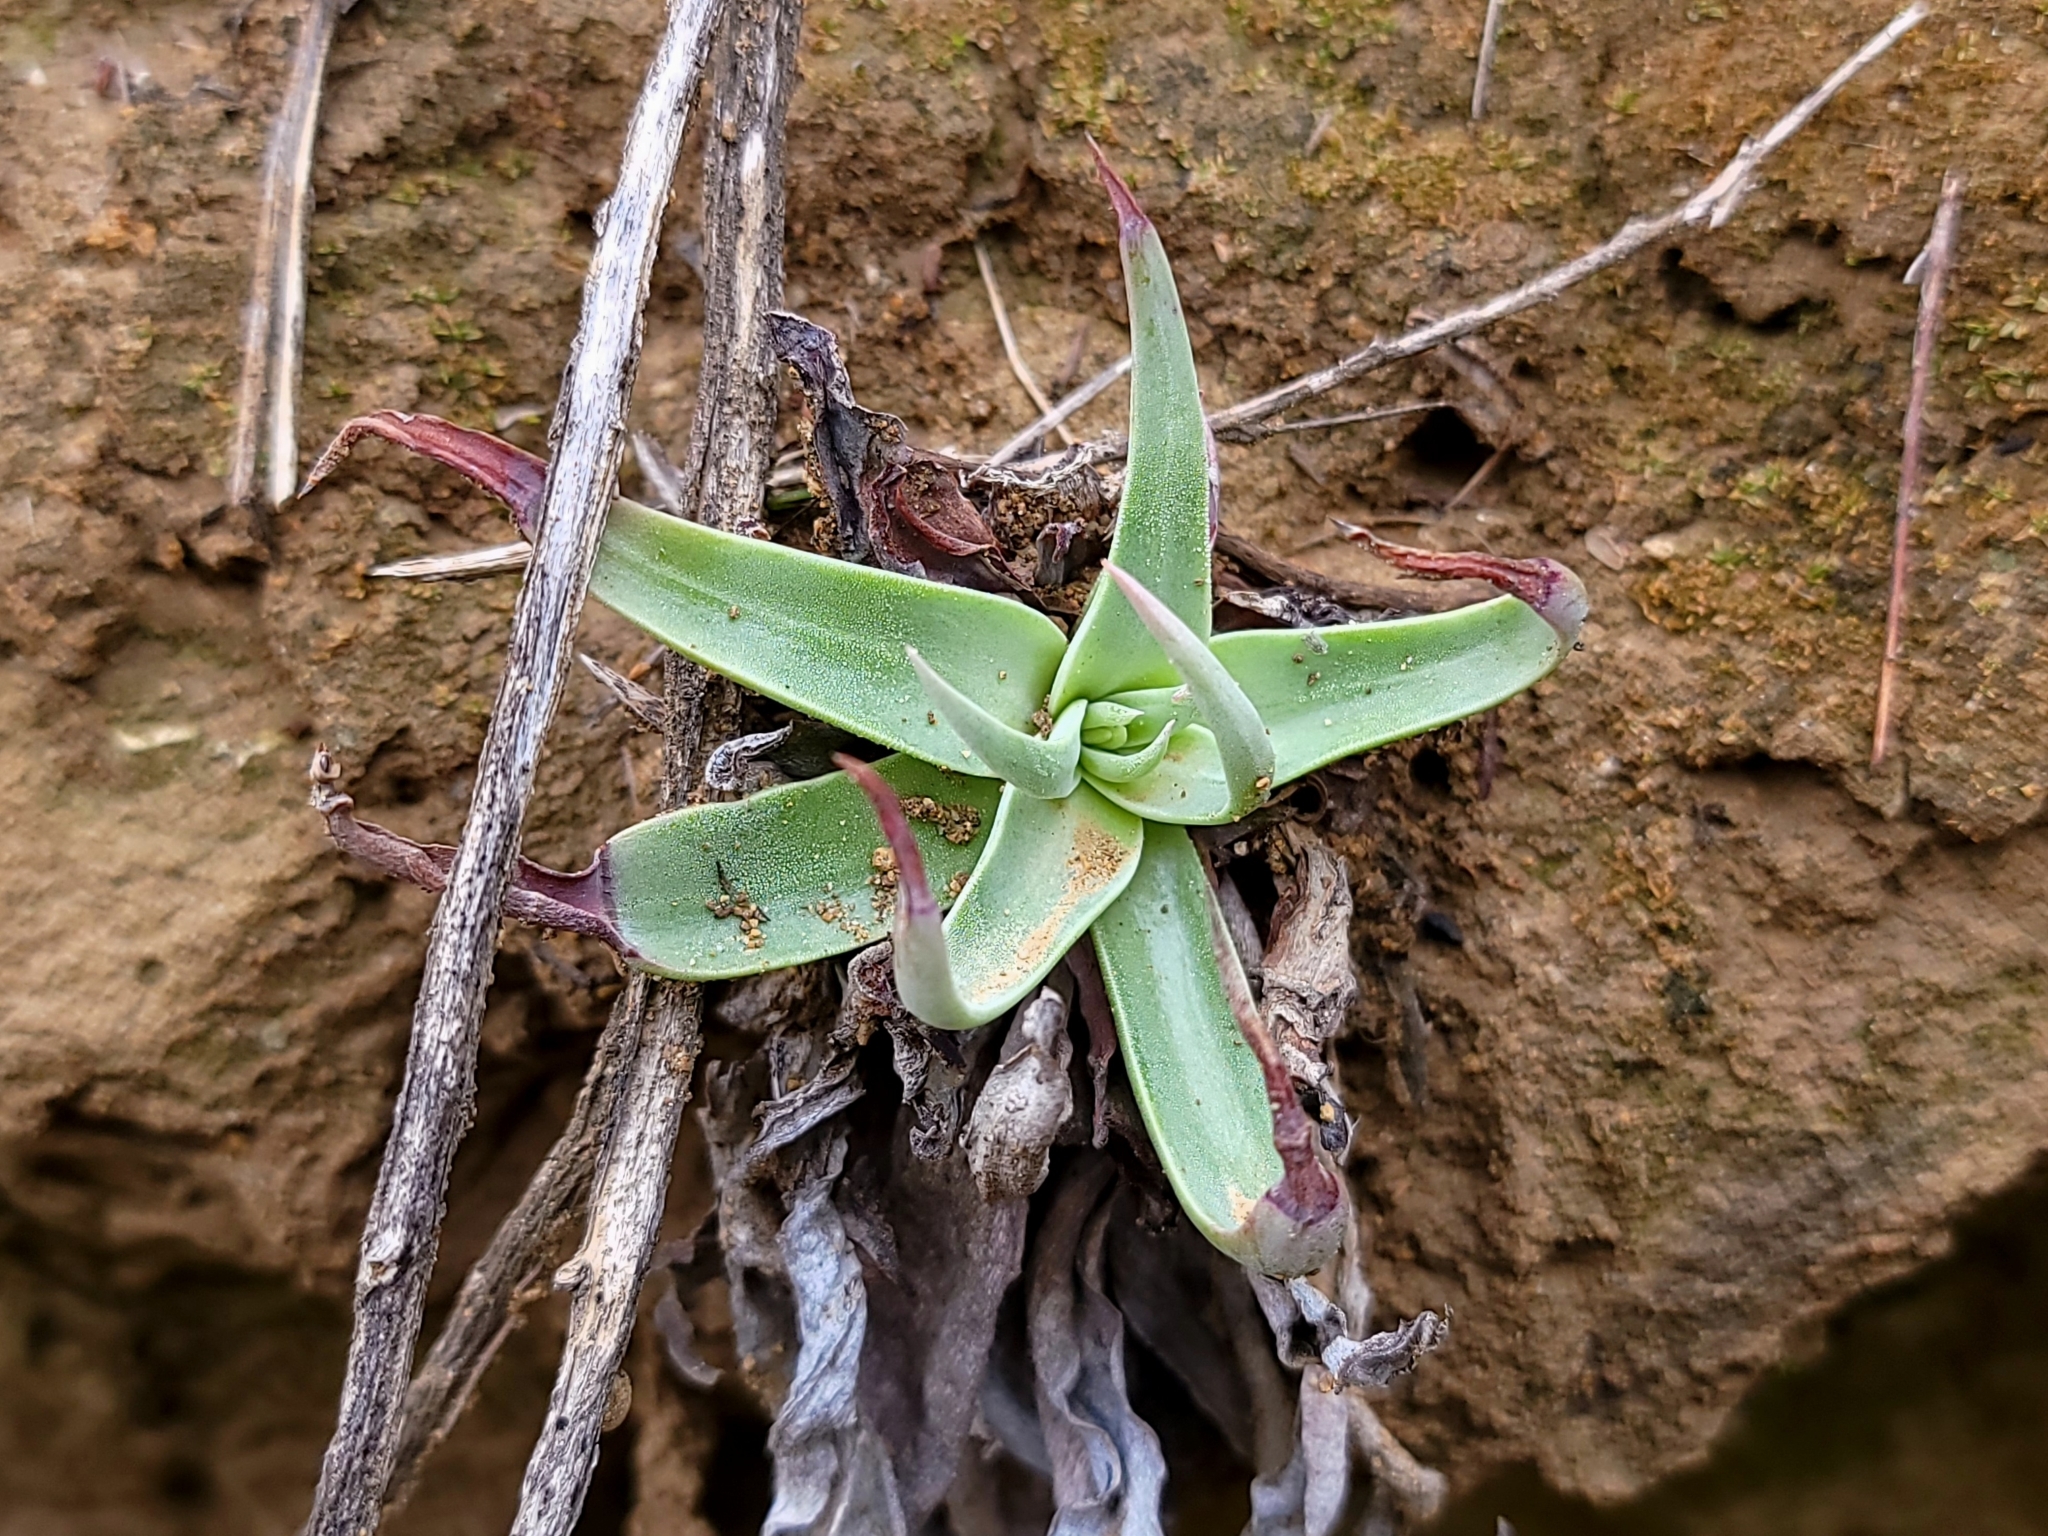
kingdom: Plantae
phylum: Tracheophyta
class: Magnoliopsida
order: Saxifragales
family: Crassulaceae
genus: Dudleya
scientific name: Dudleya lanceolata
